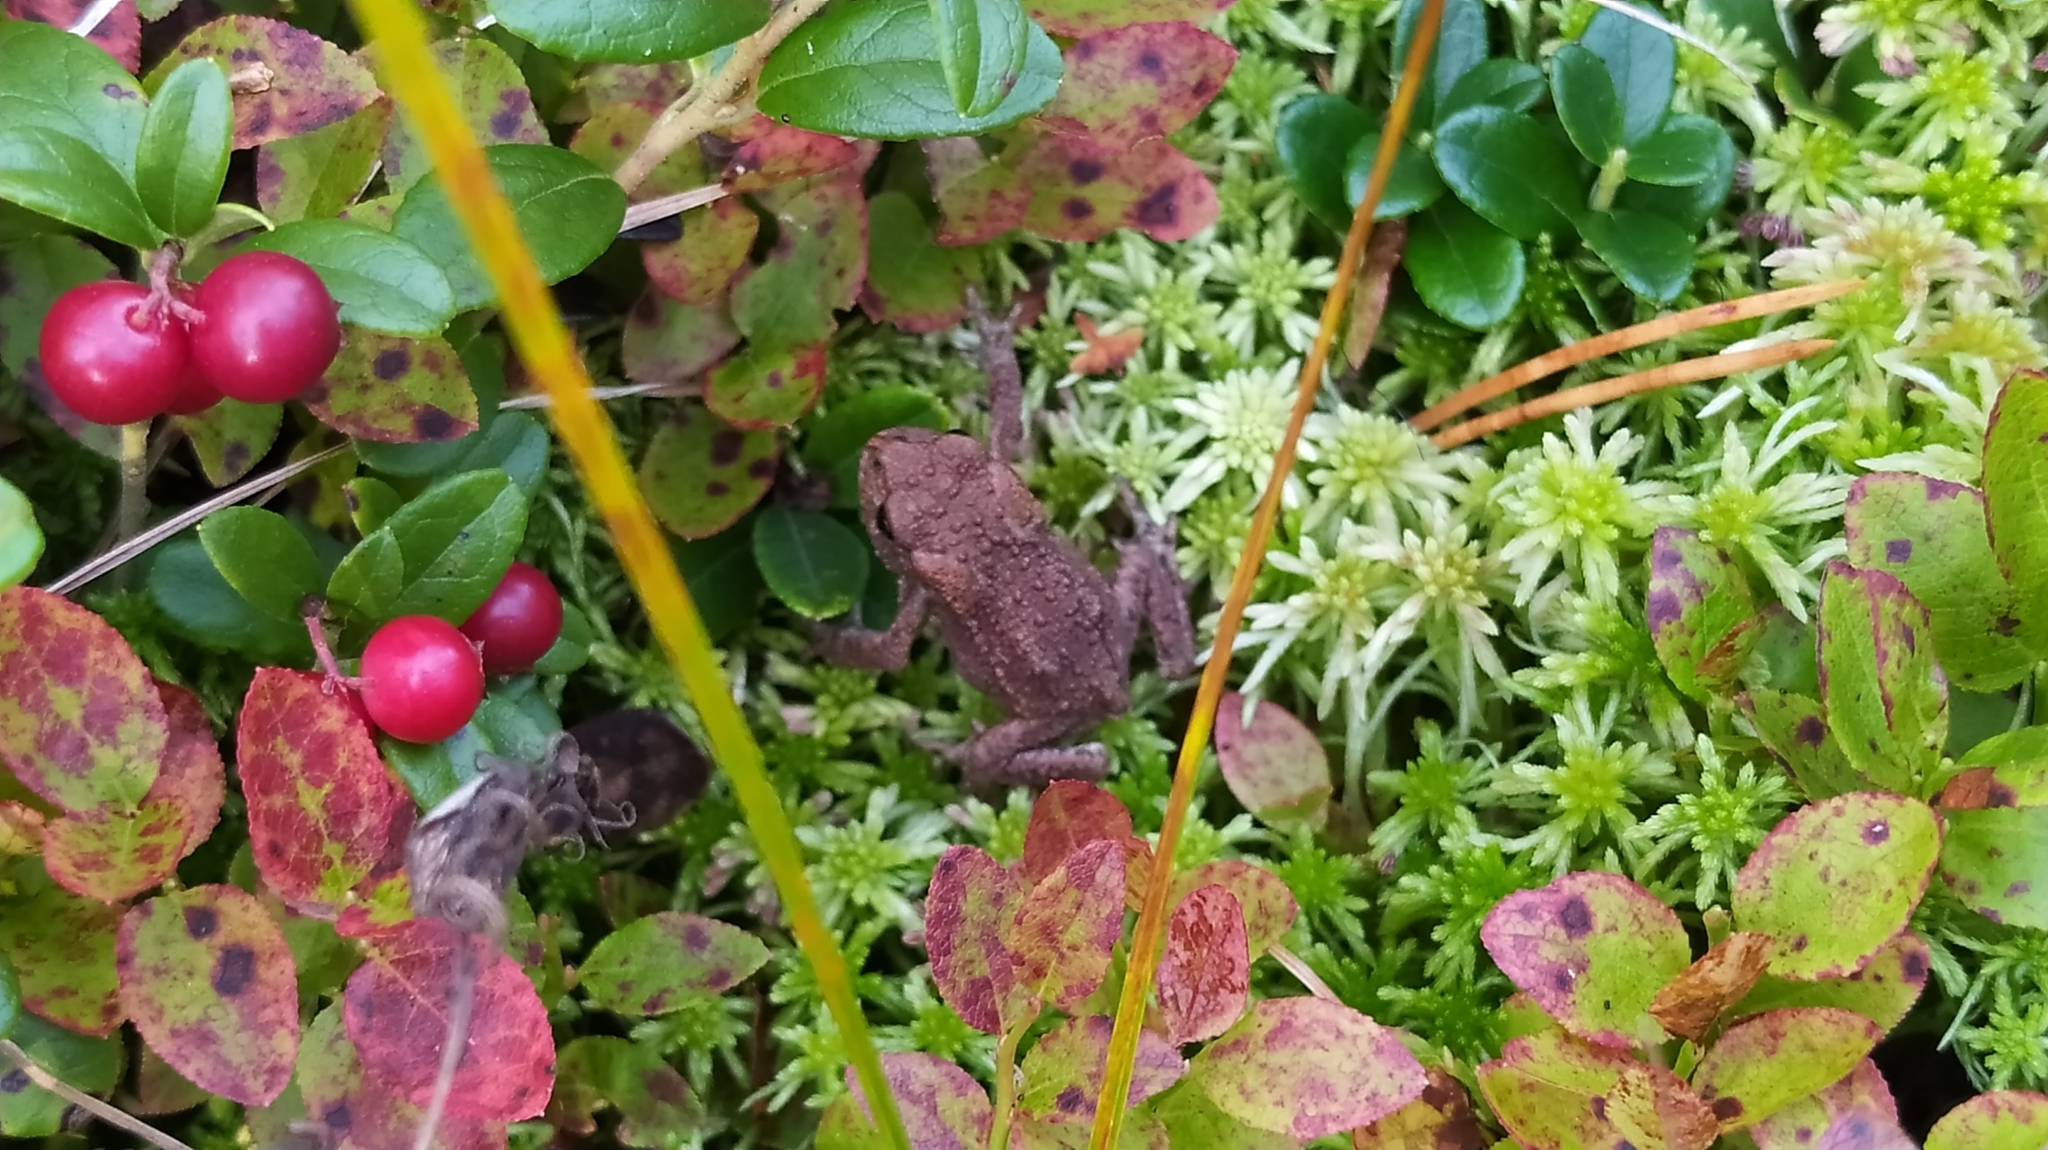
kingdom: Animalia
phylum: Chordata
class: Amphibia
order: Anura
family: Bufonidae
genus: Bufo
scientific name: Bufo bufo
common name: Common toad
